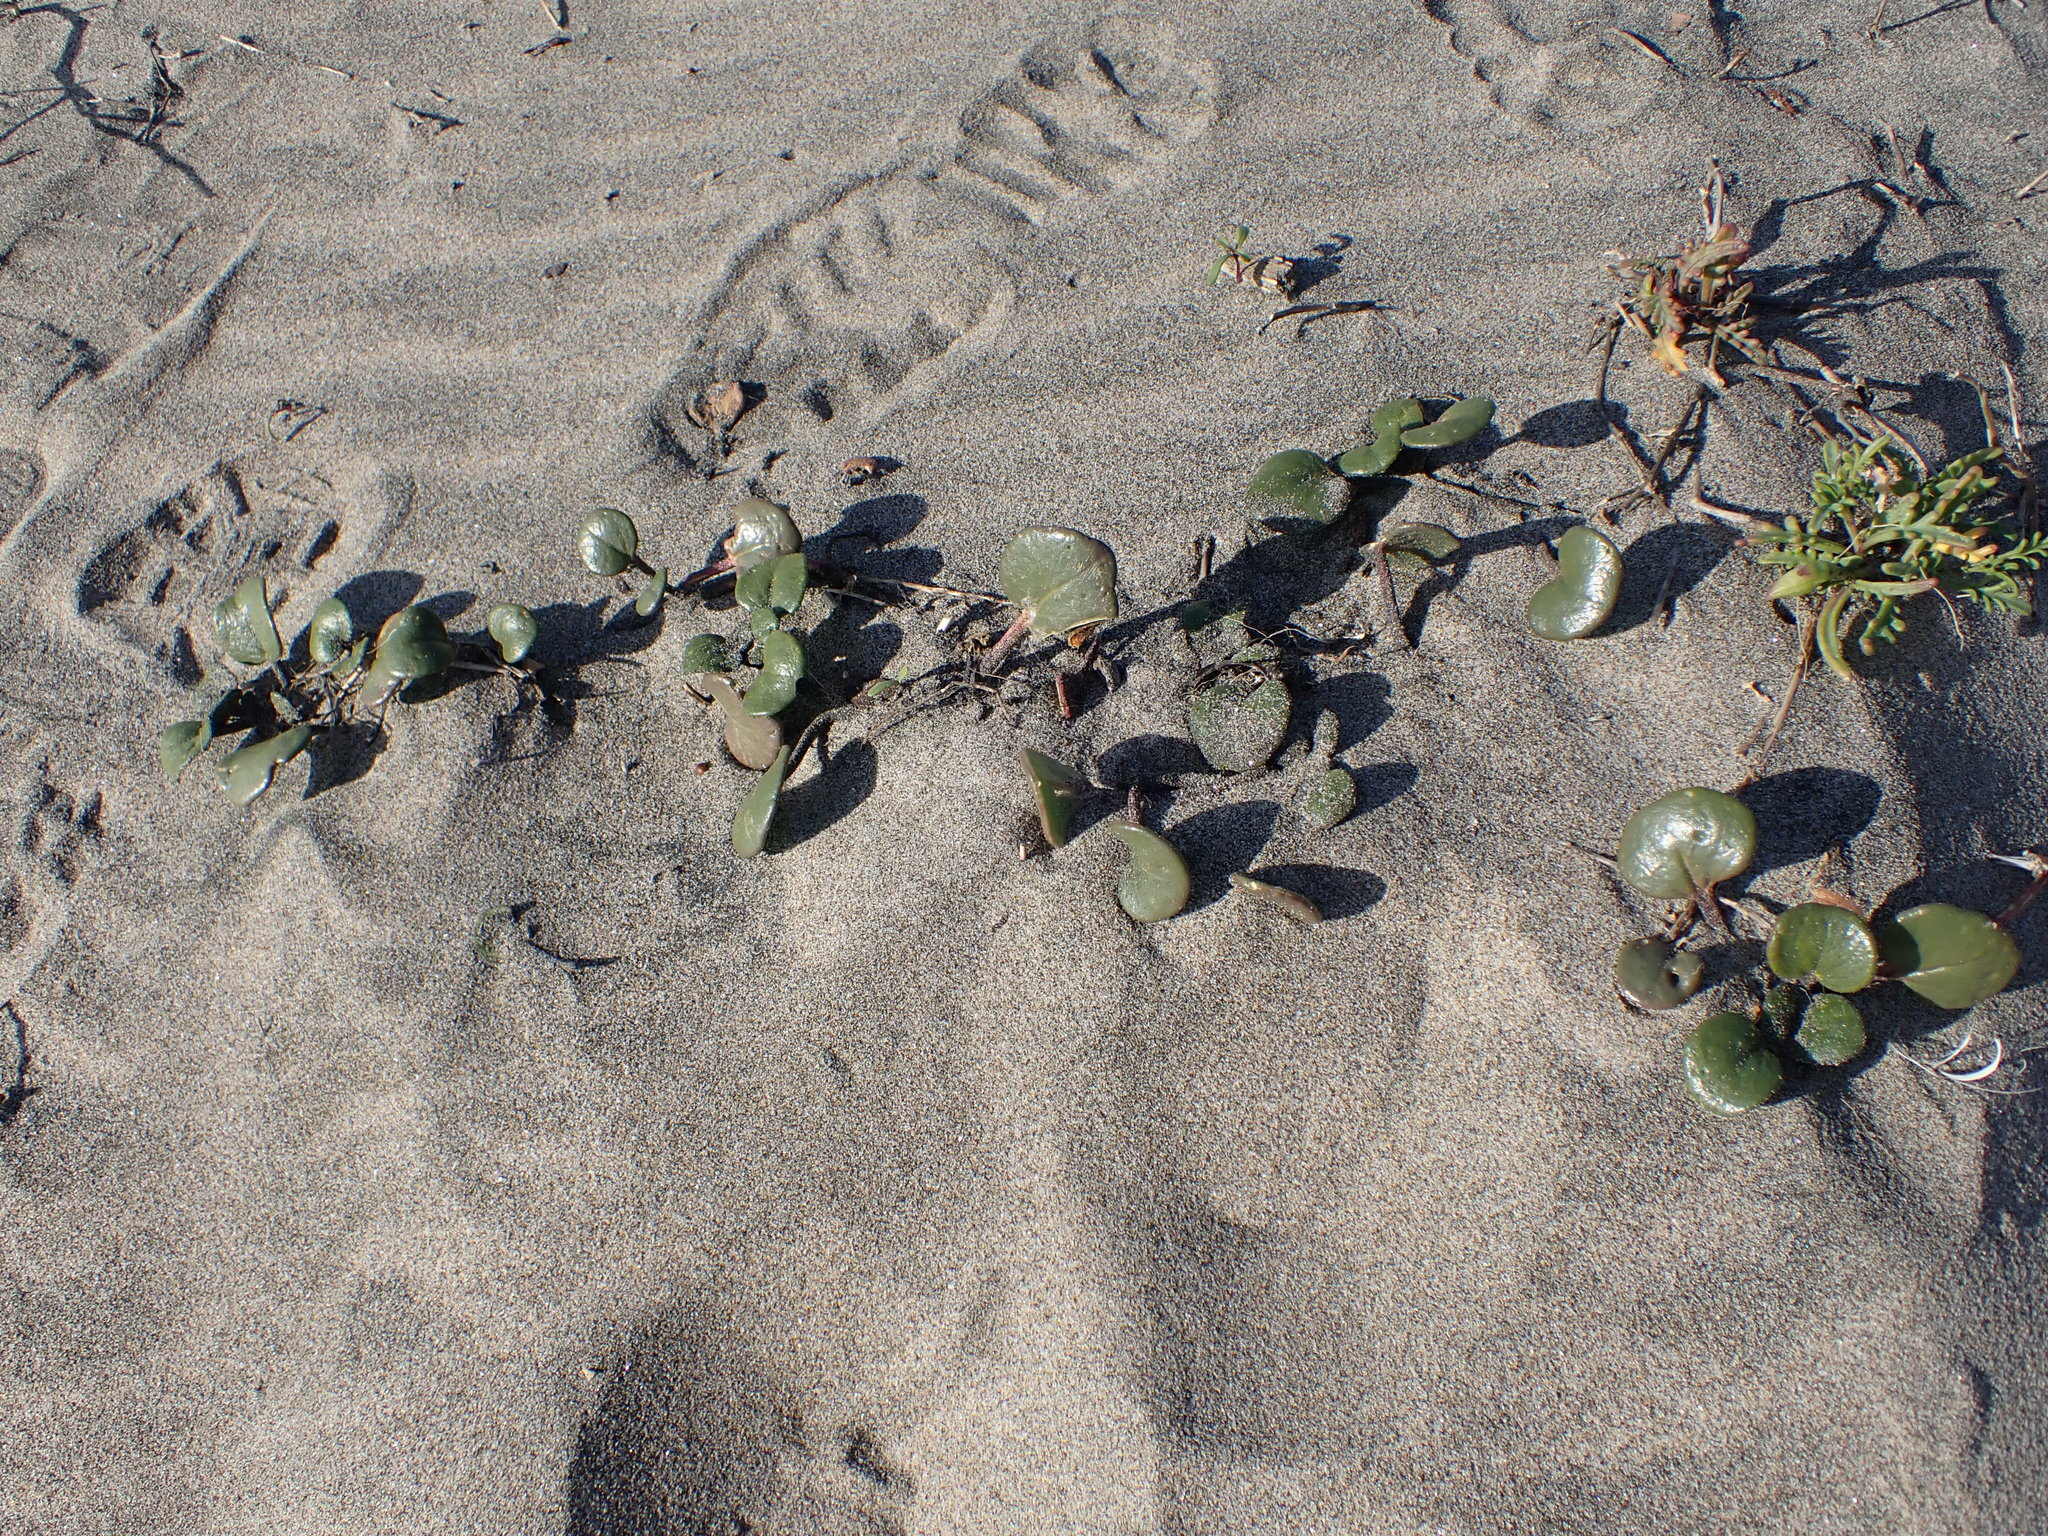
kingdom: Plantae
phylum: Tracheophyta
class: Magnoliopsida
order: Caryophyllales
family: Nyctaginaceae
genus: Abronia
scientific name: Abronia latifolia
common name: Yellow sand-verbena
